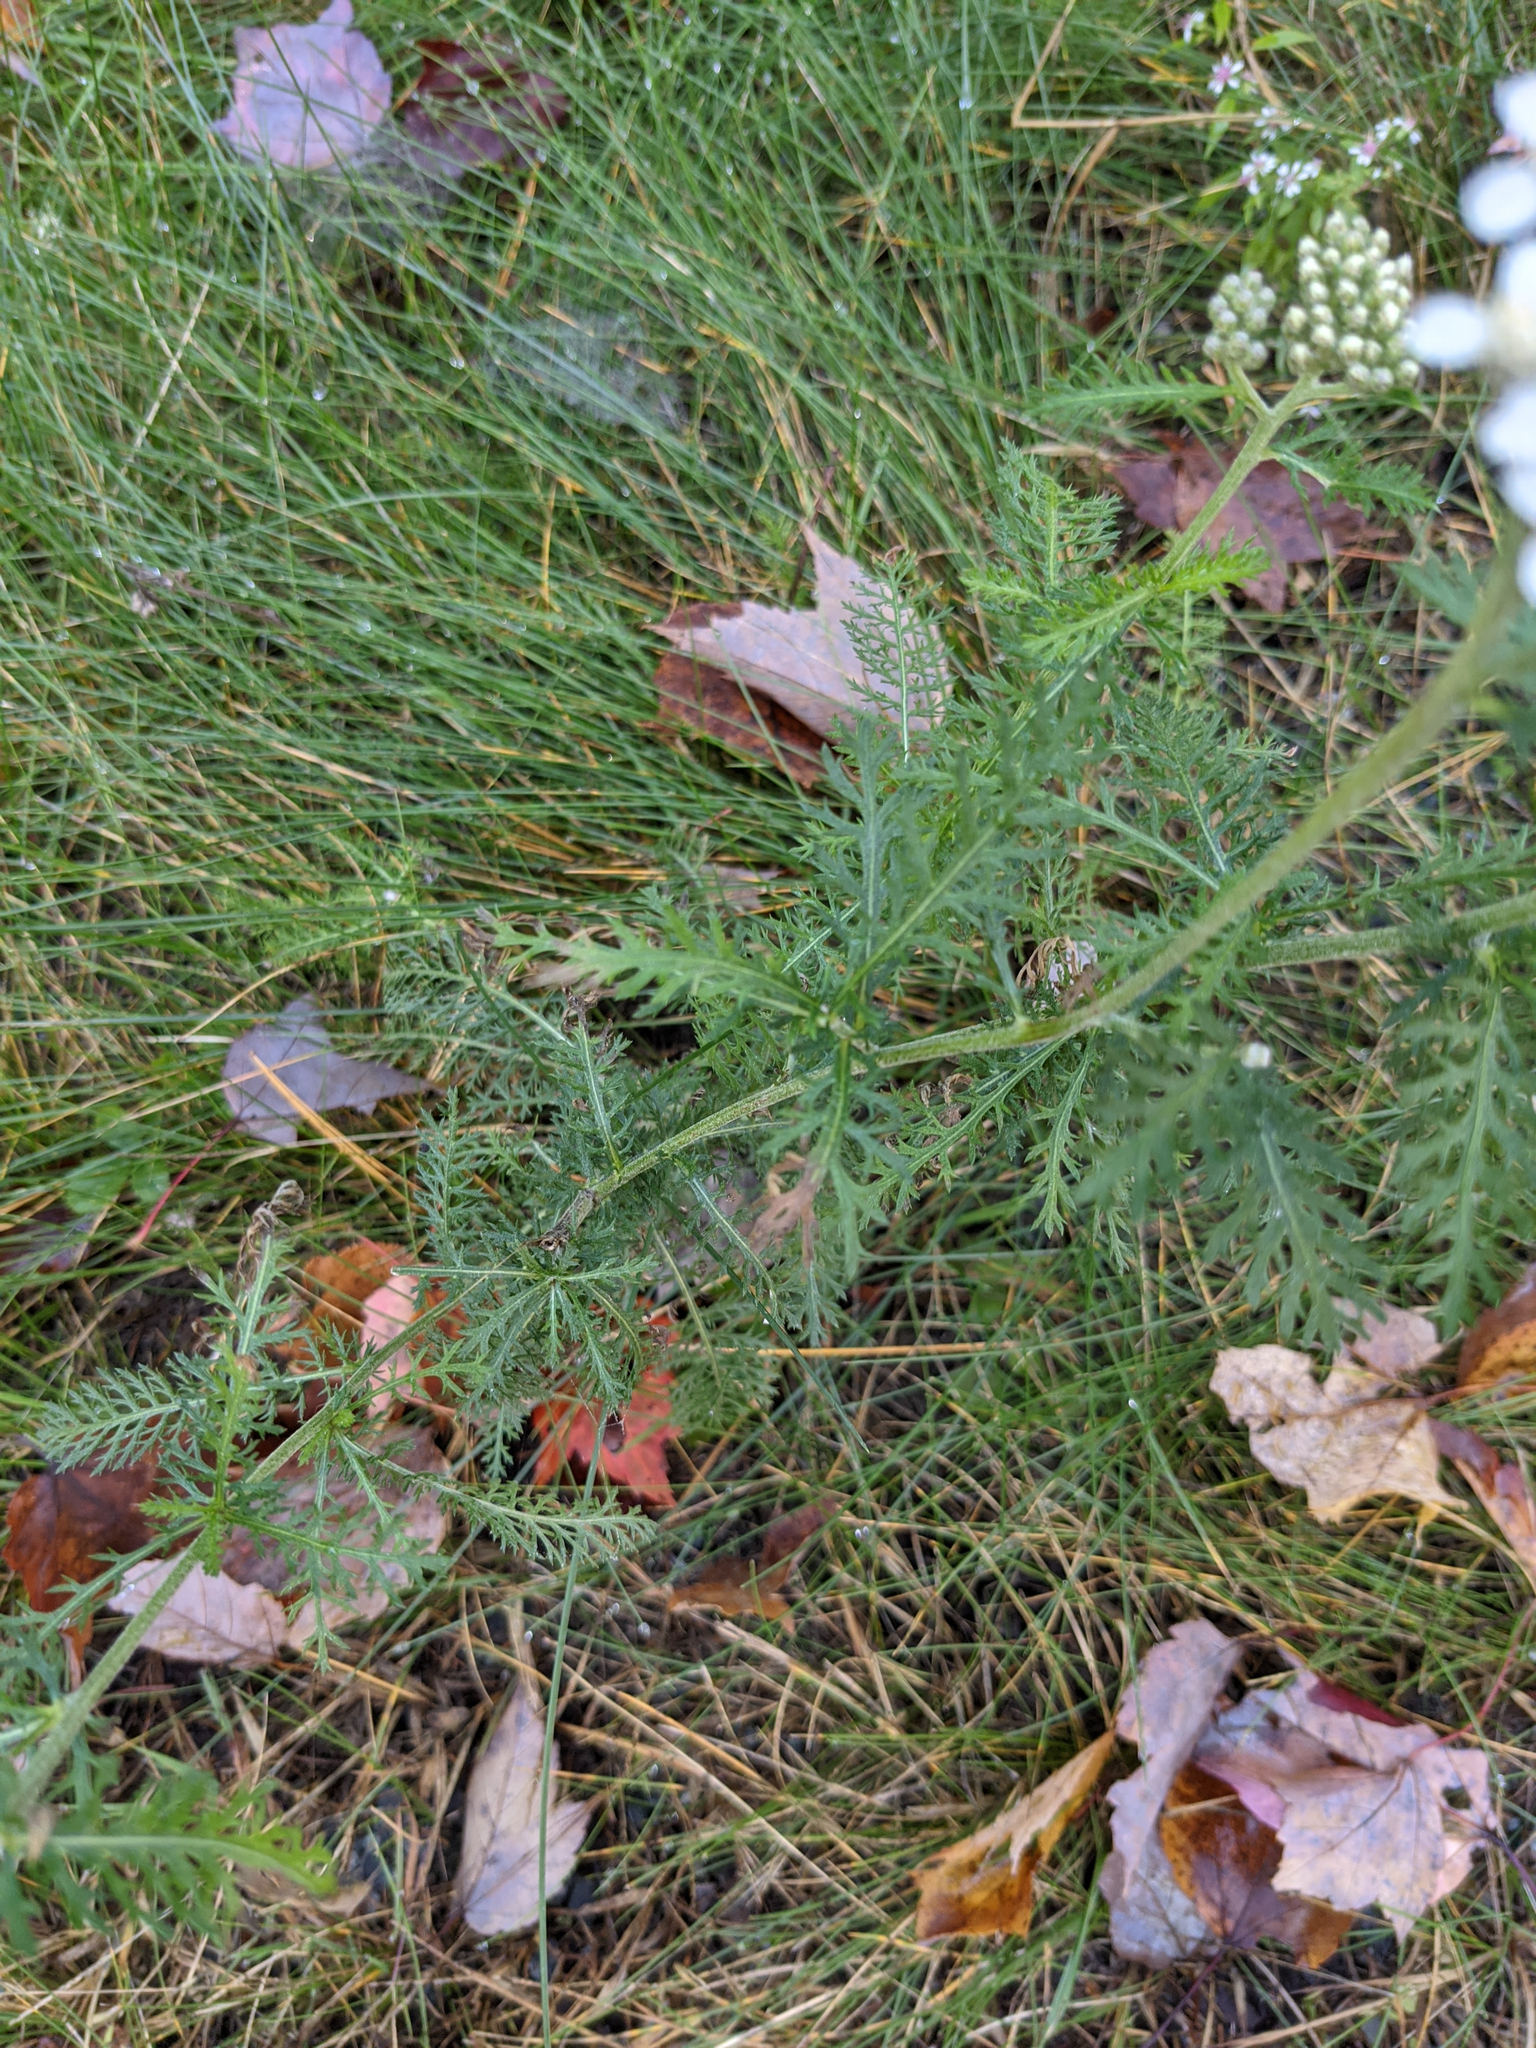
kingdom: Plantae
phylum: Tracheophyta
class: Magnoliopsida
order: Asterales
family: Asteraceae
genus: Achillea
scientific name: Achillea millefolium
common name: Yarrow
